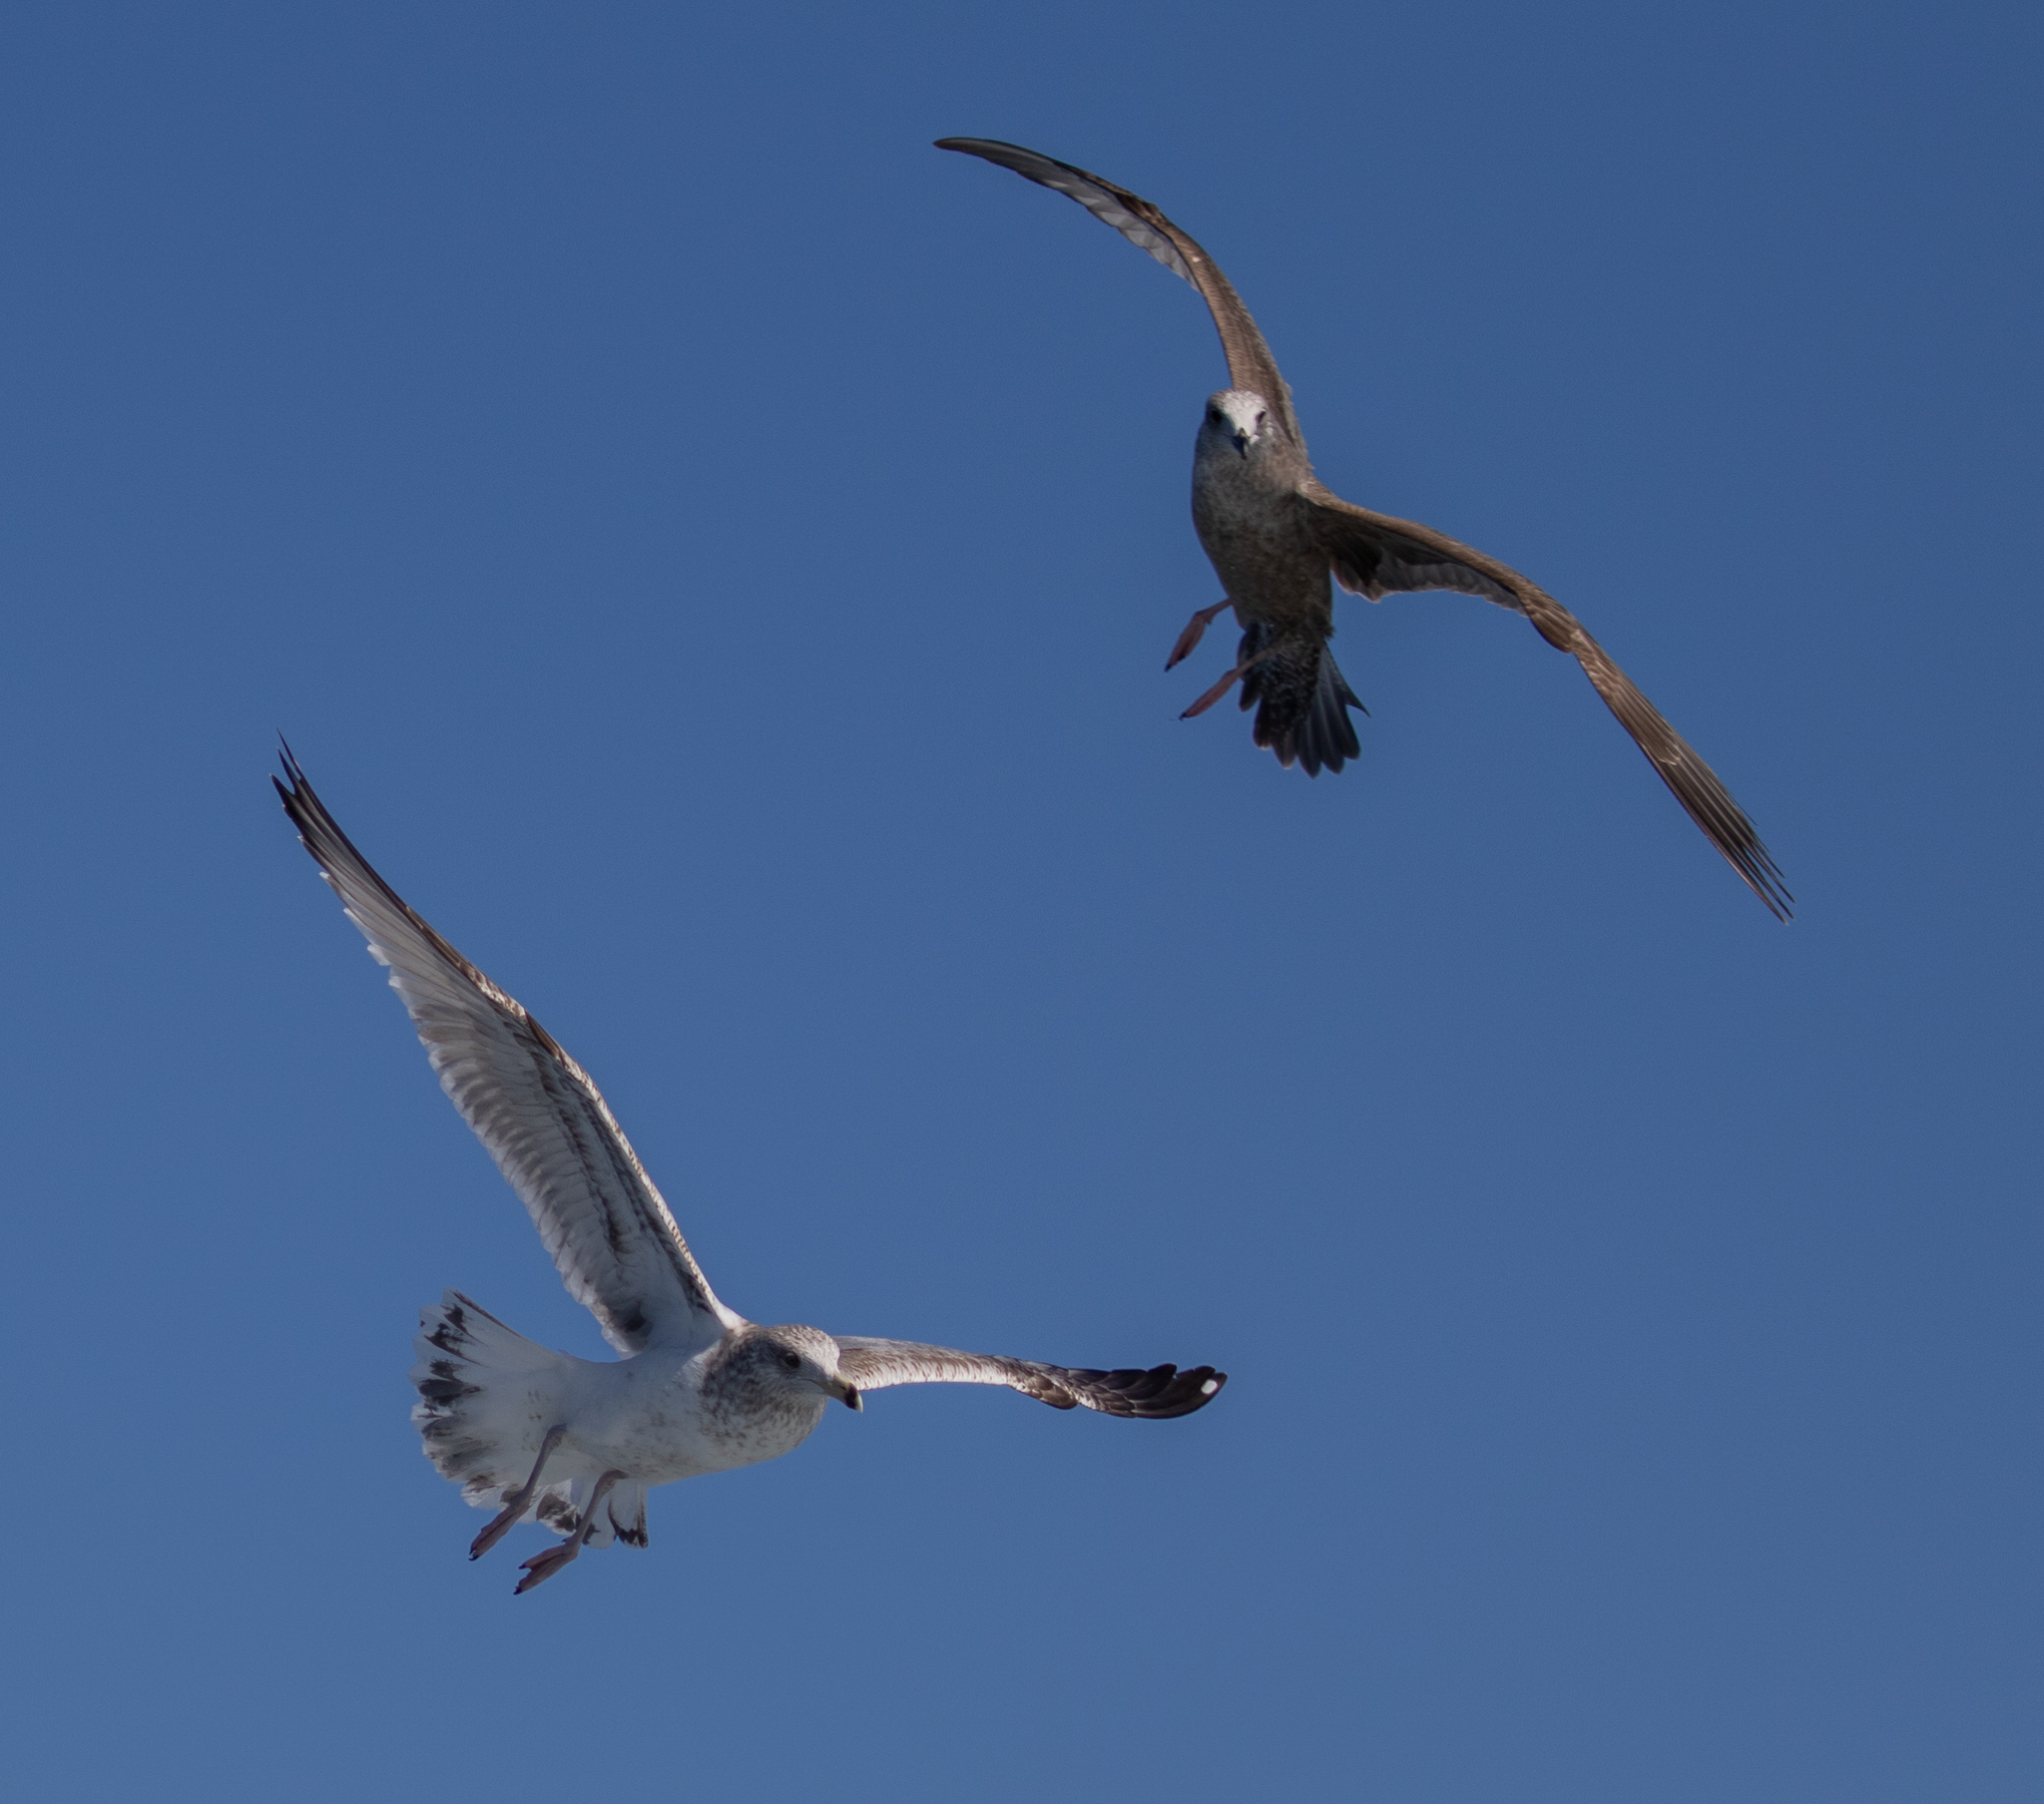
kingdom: Animalia
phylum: Chordata
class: Aves
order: Charadriiformes
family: Laridae
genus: Larus
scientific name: Larus argentatus
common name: Herring gull
